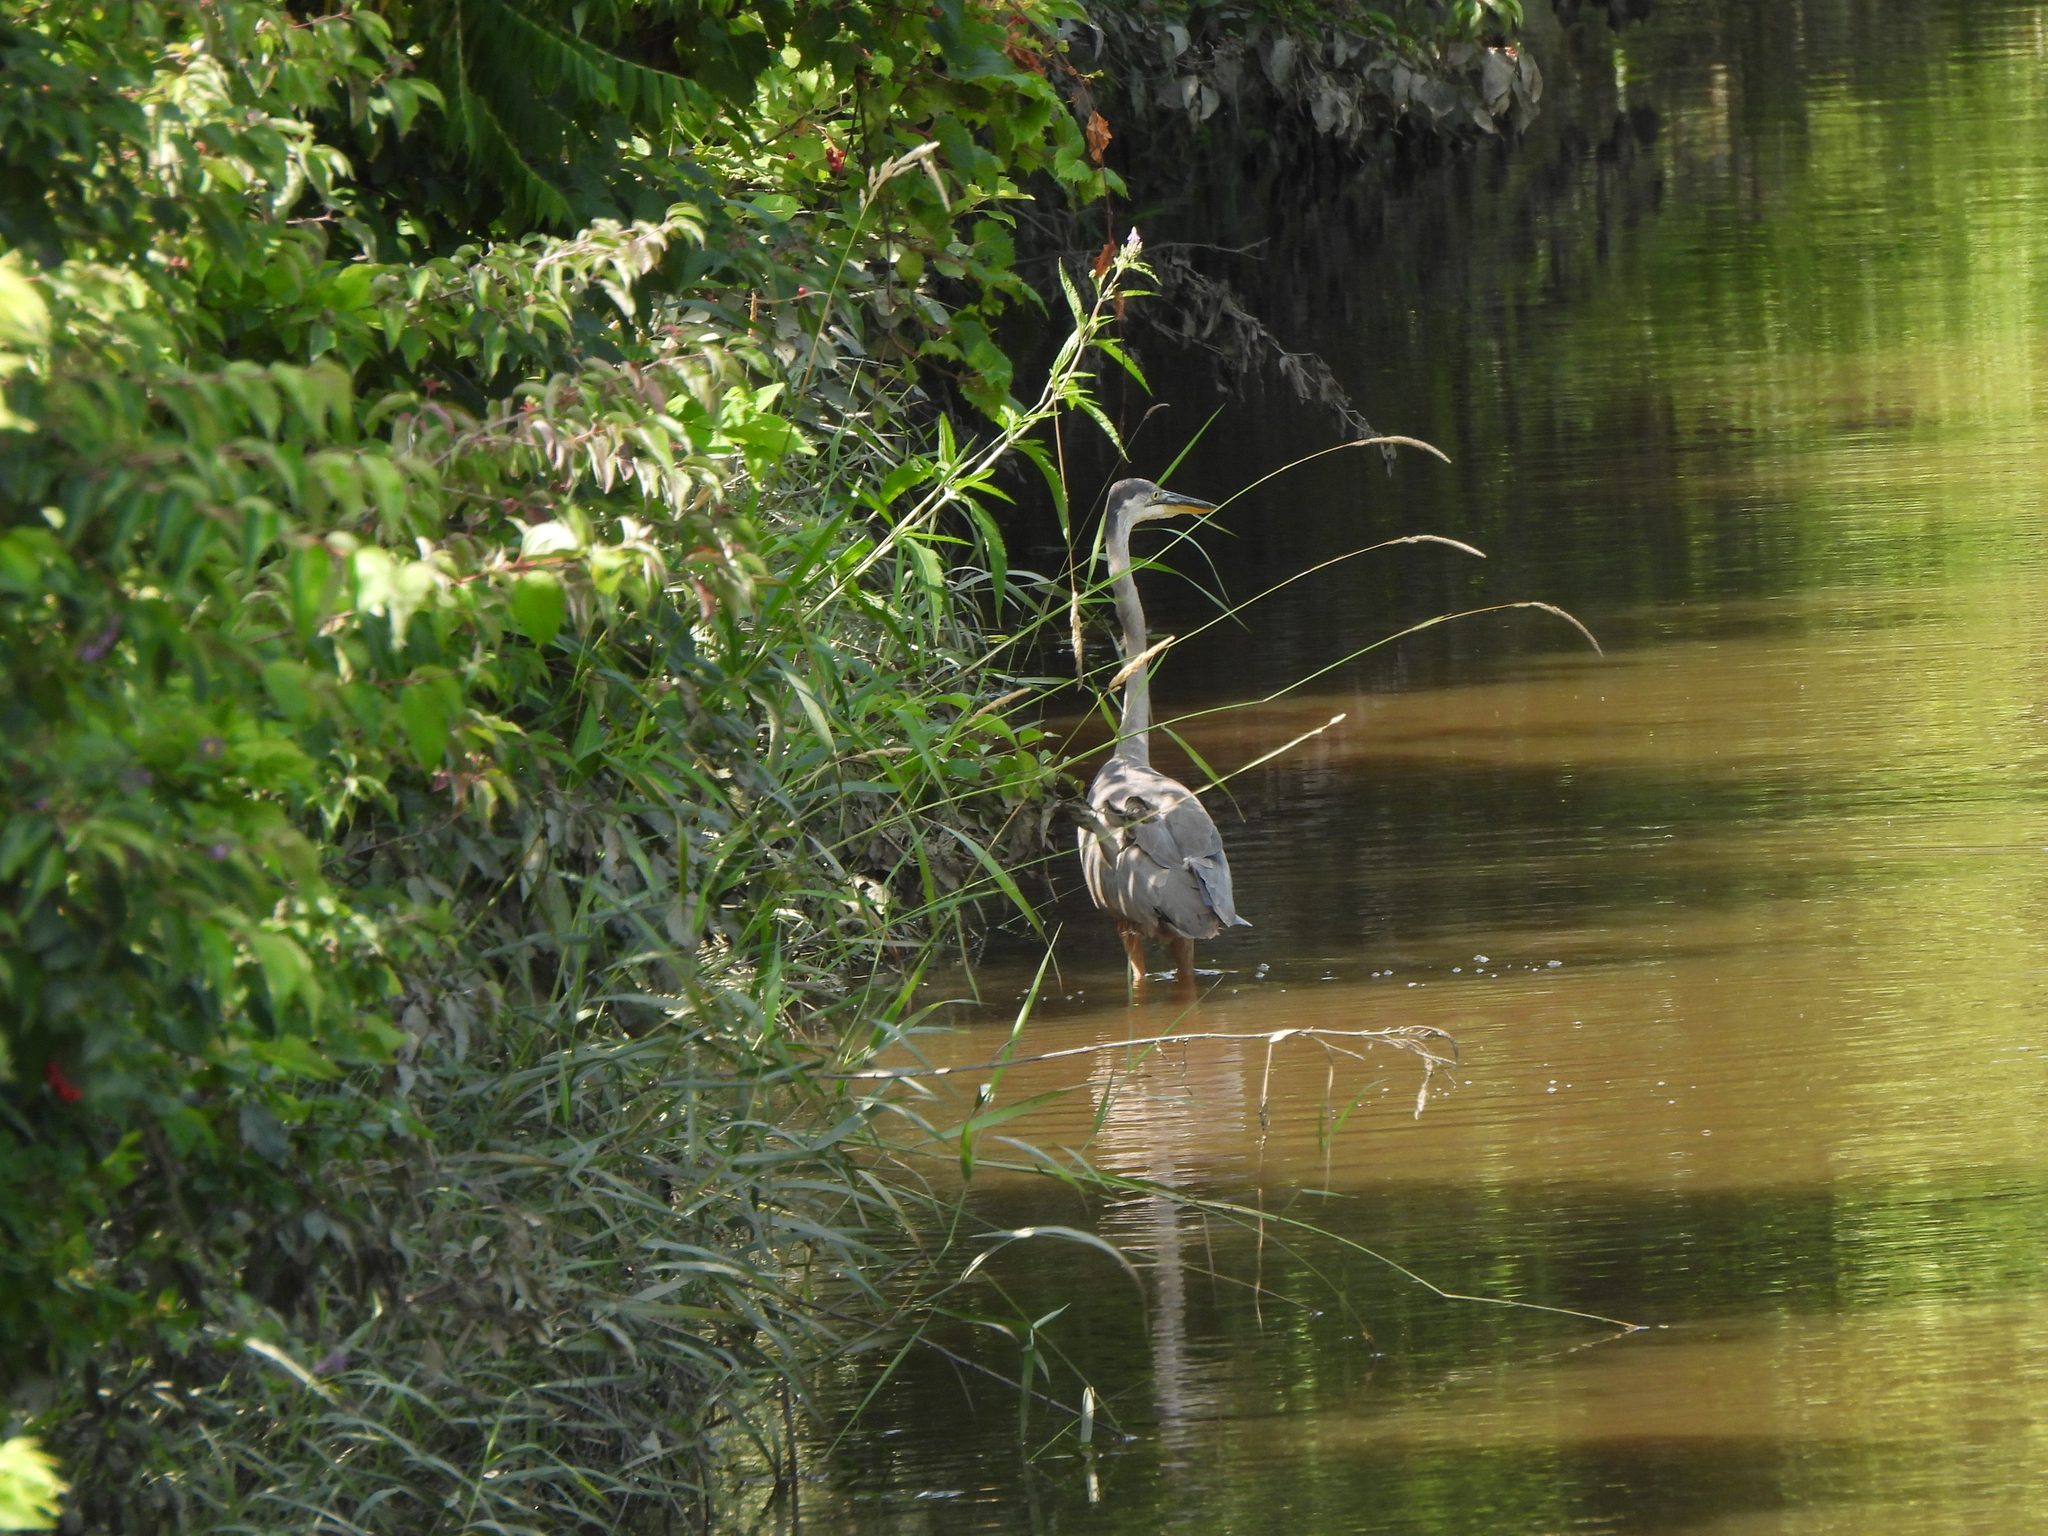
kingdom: Animalia
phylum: Chordata
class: Aves
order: Pelecaniformes
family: Ardeidae
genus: Ardea
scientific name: Ardea herodias
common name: Great blue heron
